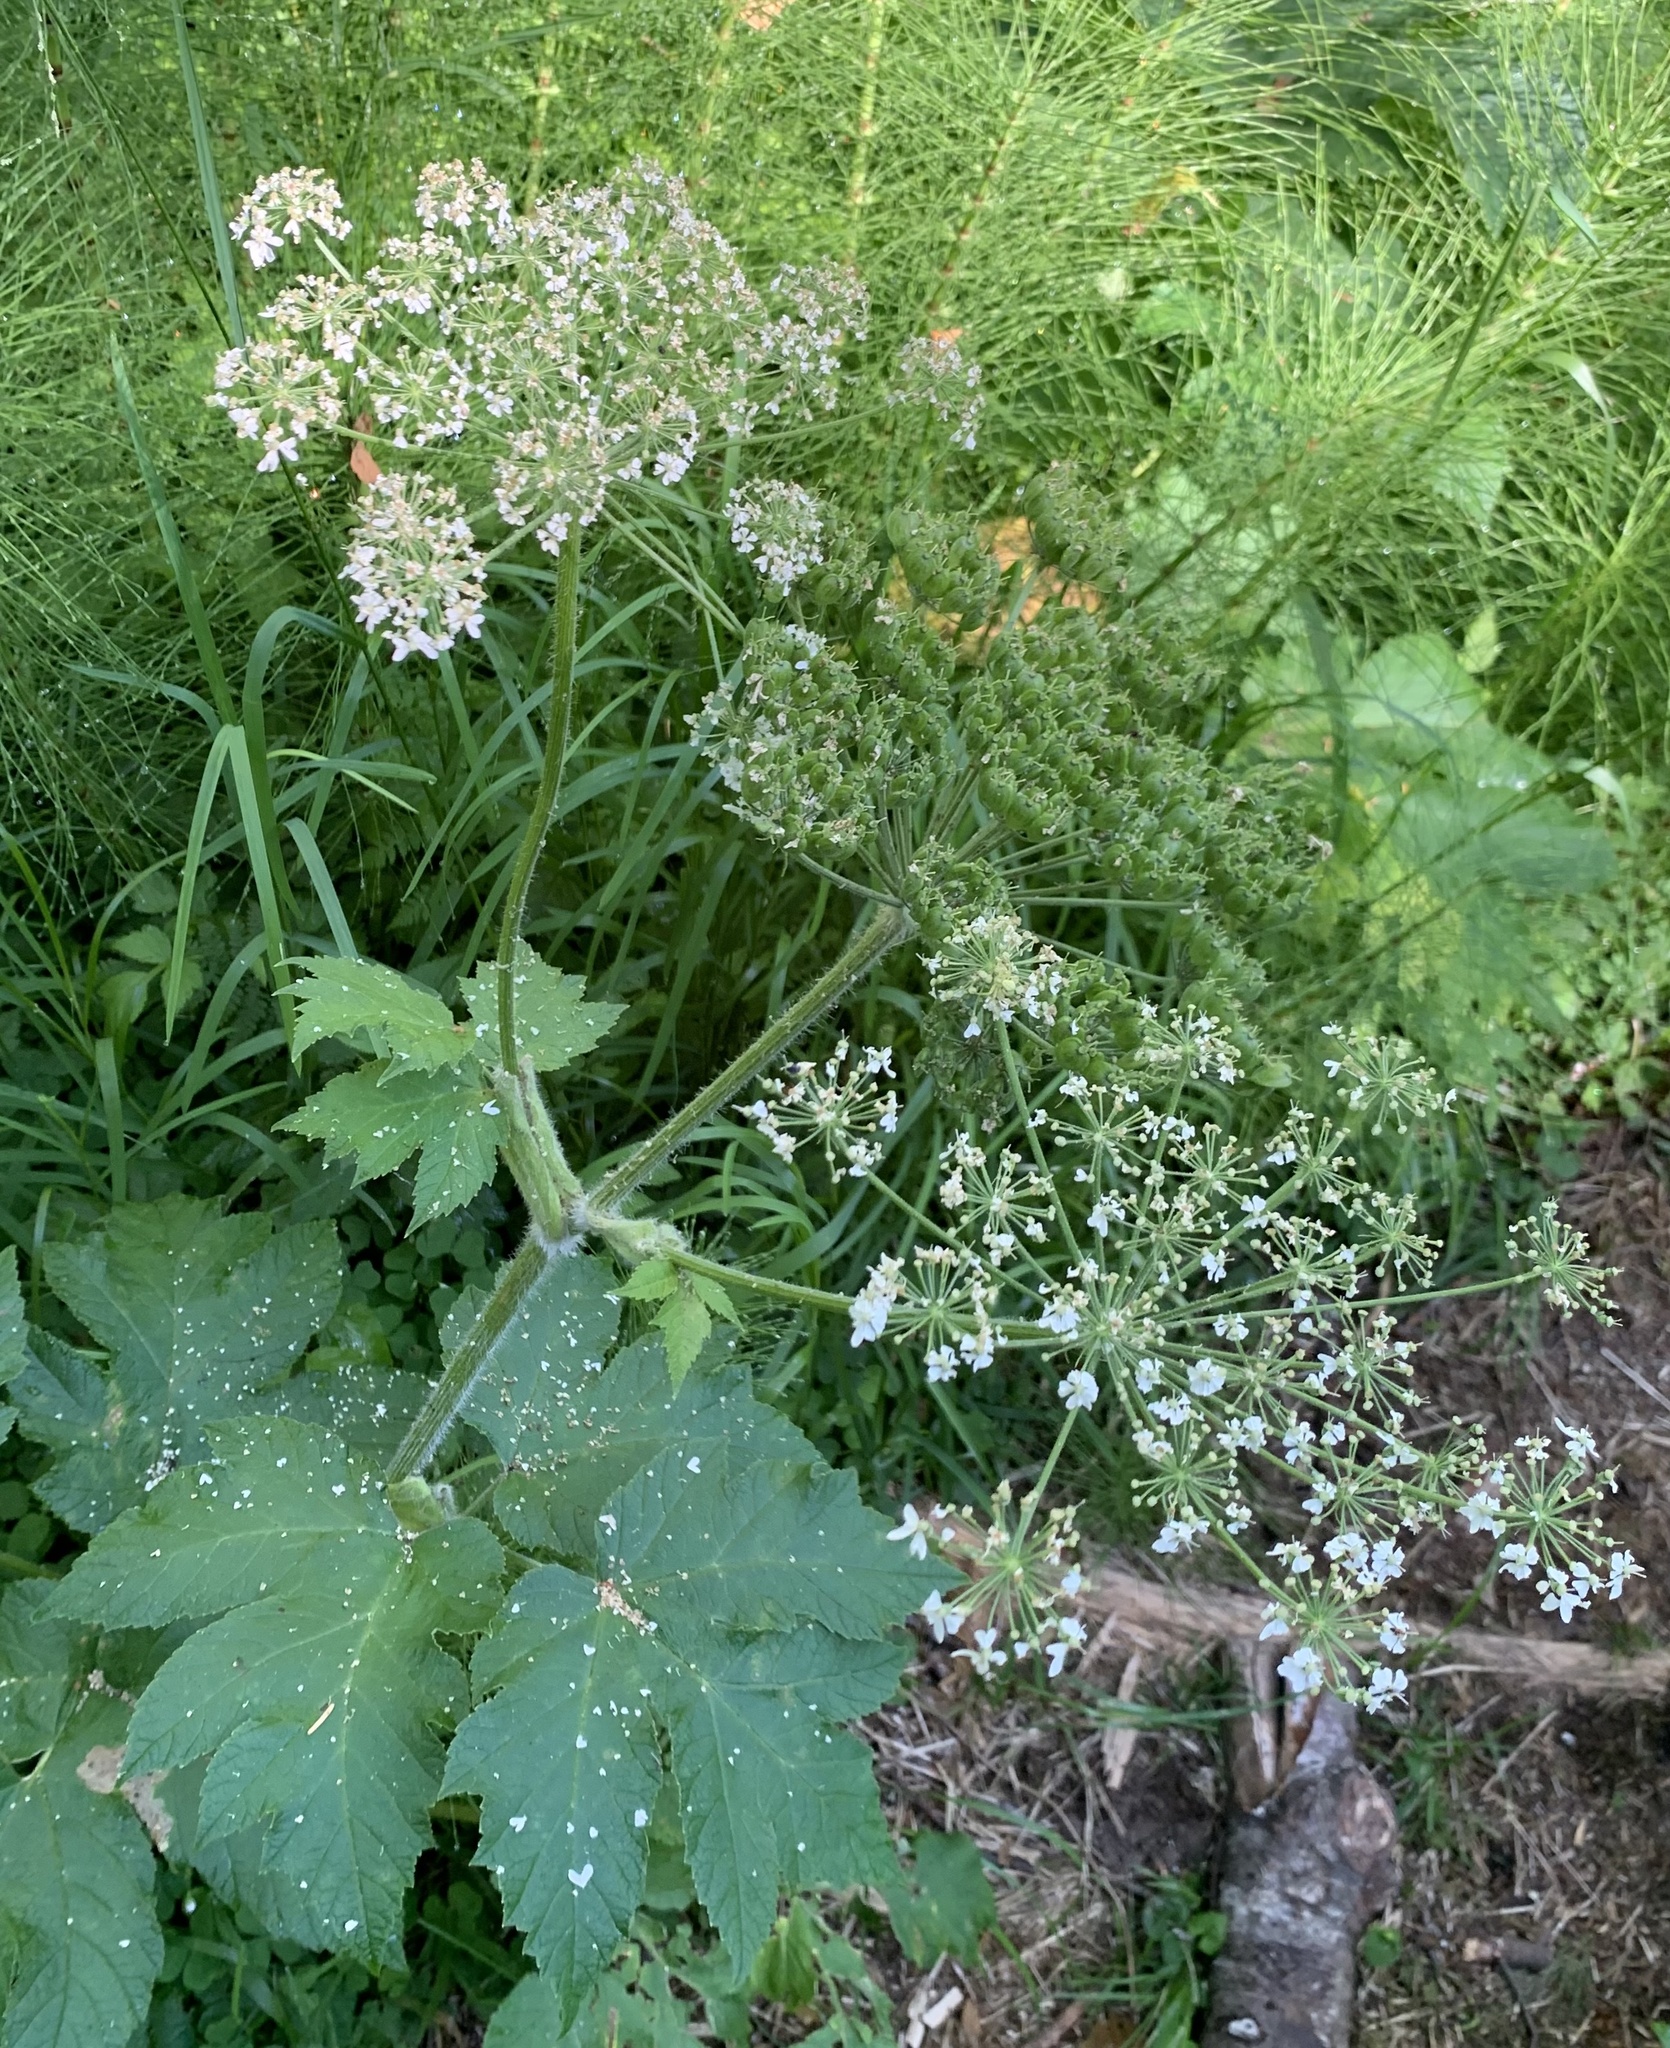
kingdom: Plantae
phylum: Tracheophyta
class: Magnoliopsida
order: Apiales
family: Apiaceae
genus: Heracleum
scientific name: Heracleum maximum
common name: American cow parsnip
